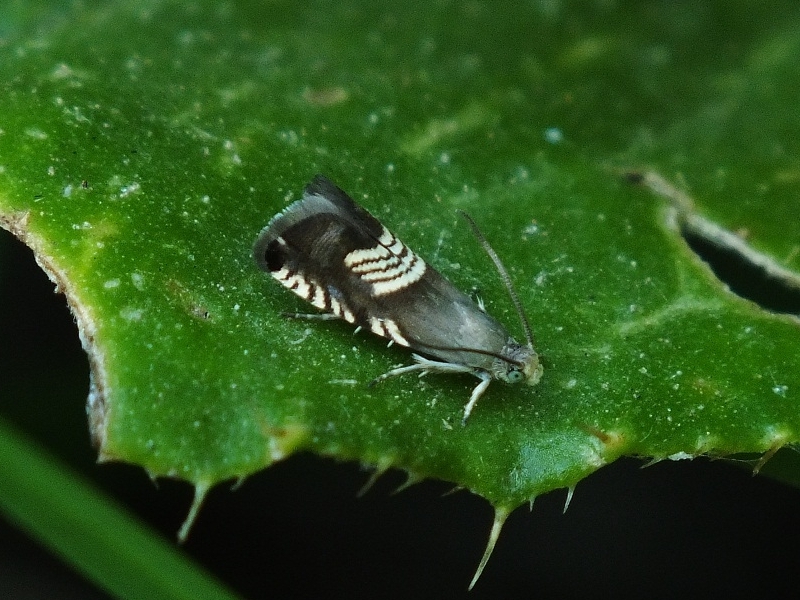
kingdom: Animalia
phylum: Arthropoda
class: Insecta
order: Lepidoptera
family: Tortricidae
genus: Grapholita
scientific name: Grapholita compositella
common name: Triple-stripe piercer
